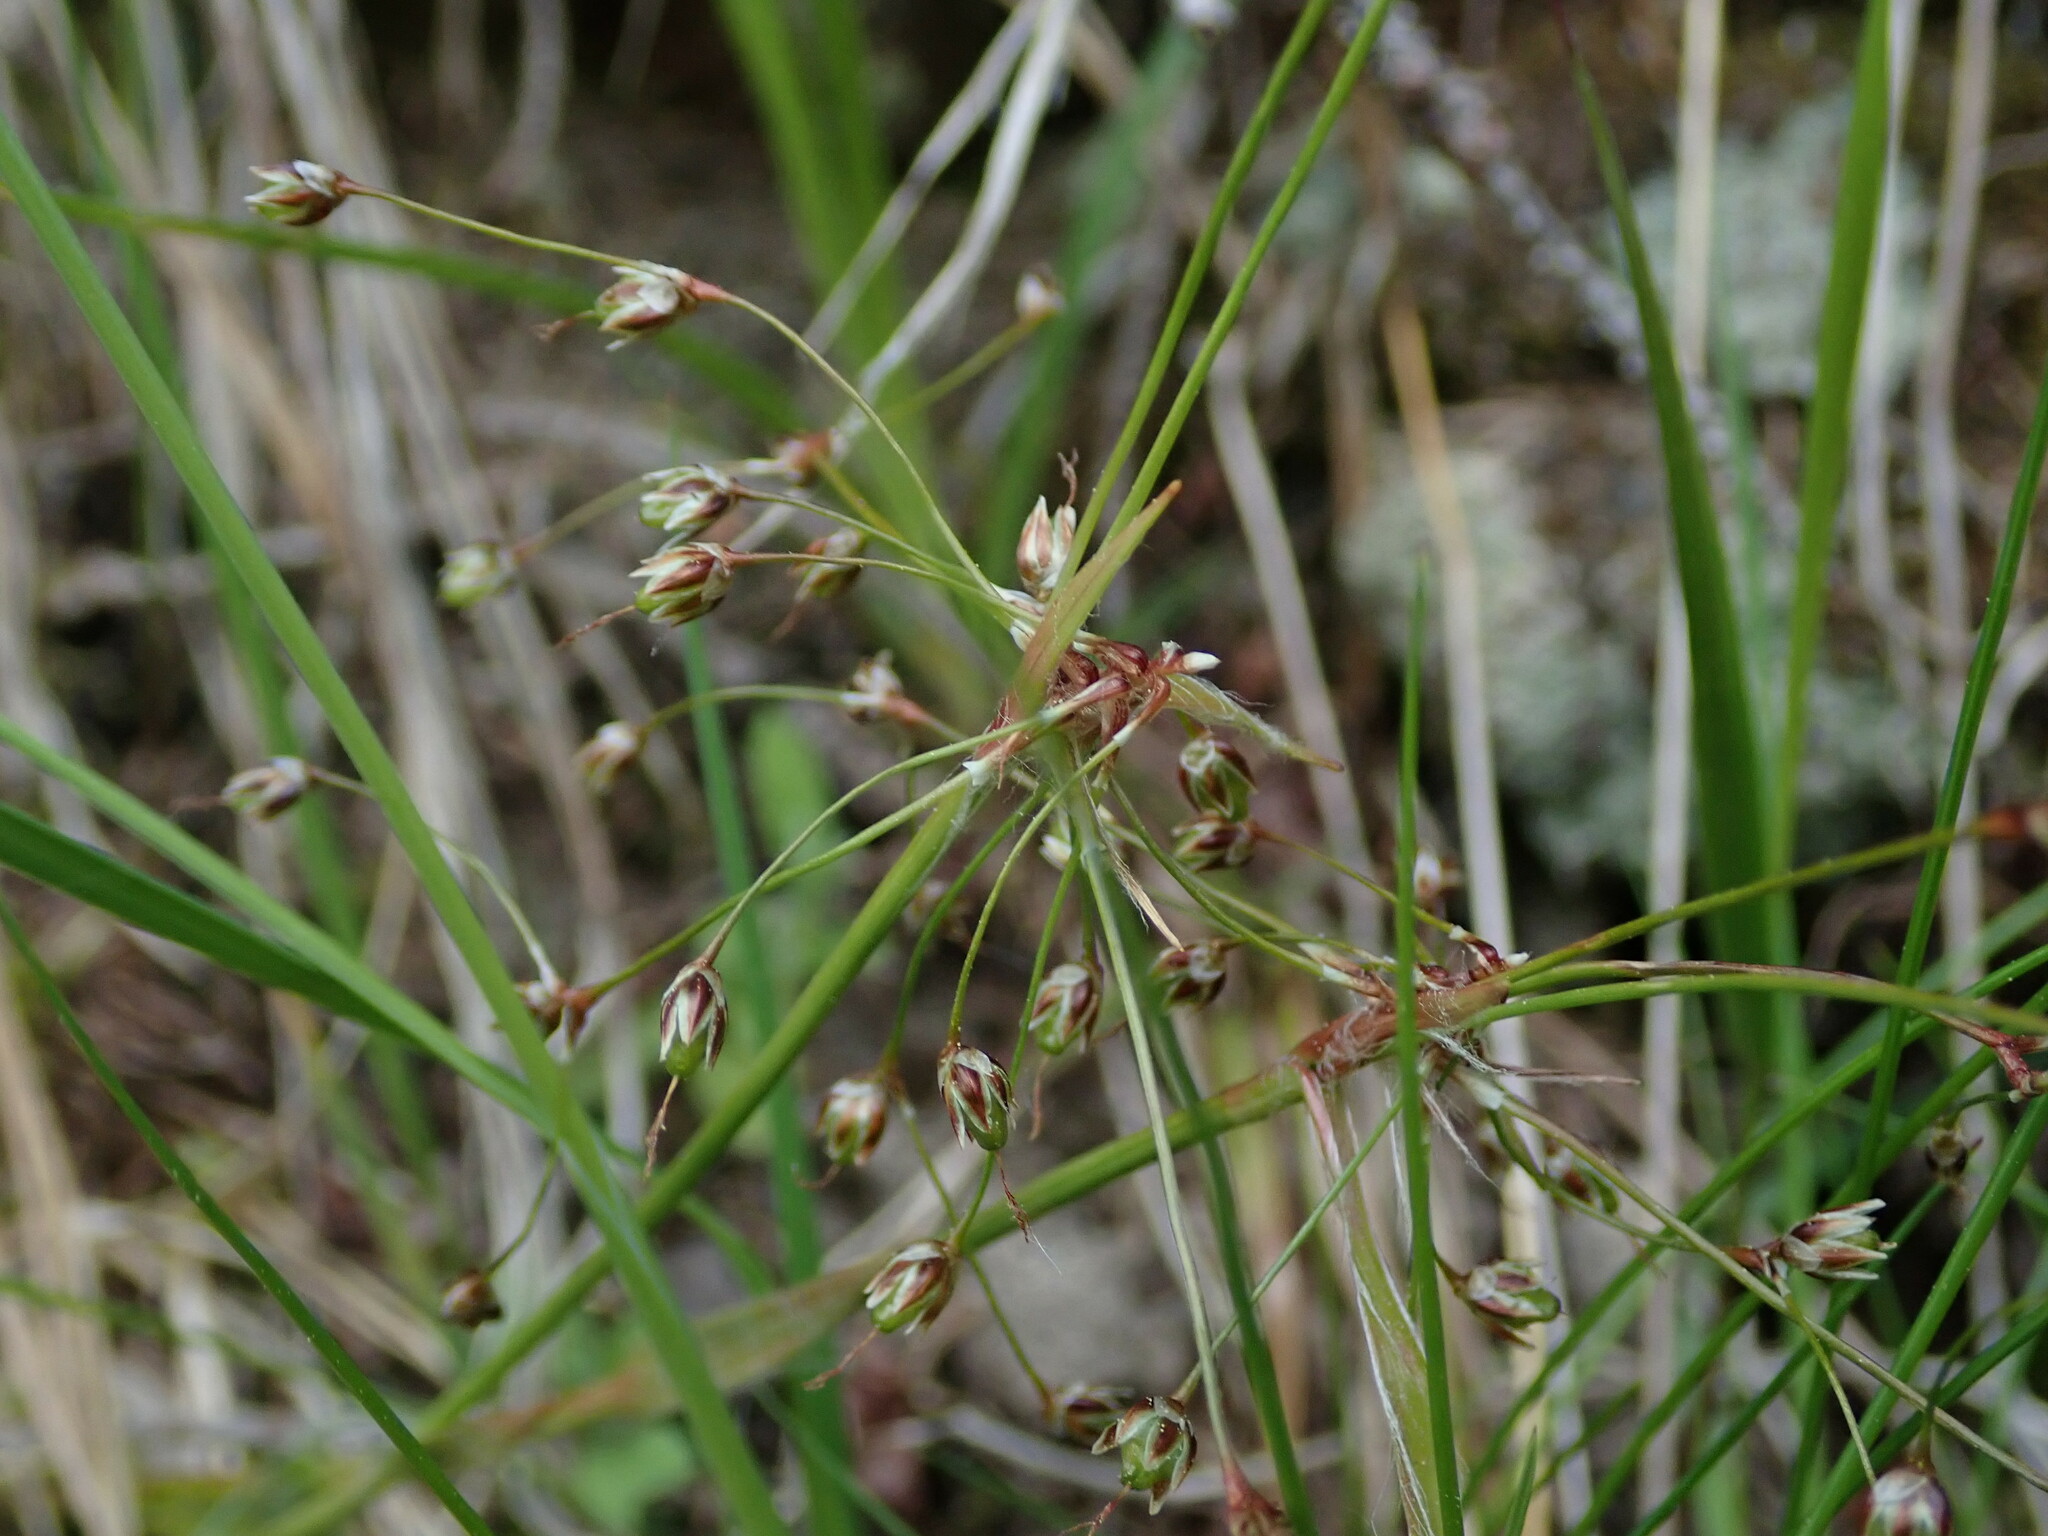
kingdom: Plantae
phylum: Tracheophyta
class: Liliopsida
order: Poales
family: Juncaceae
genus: Luzula
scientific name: Luzula pilosa
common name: Hairy wood-rush
